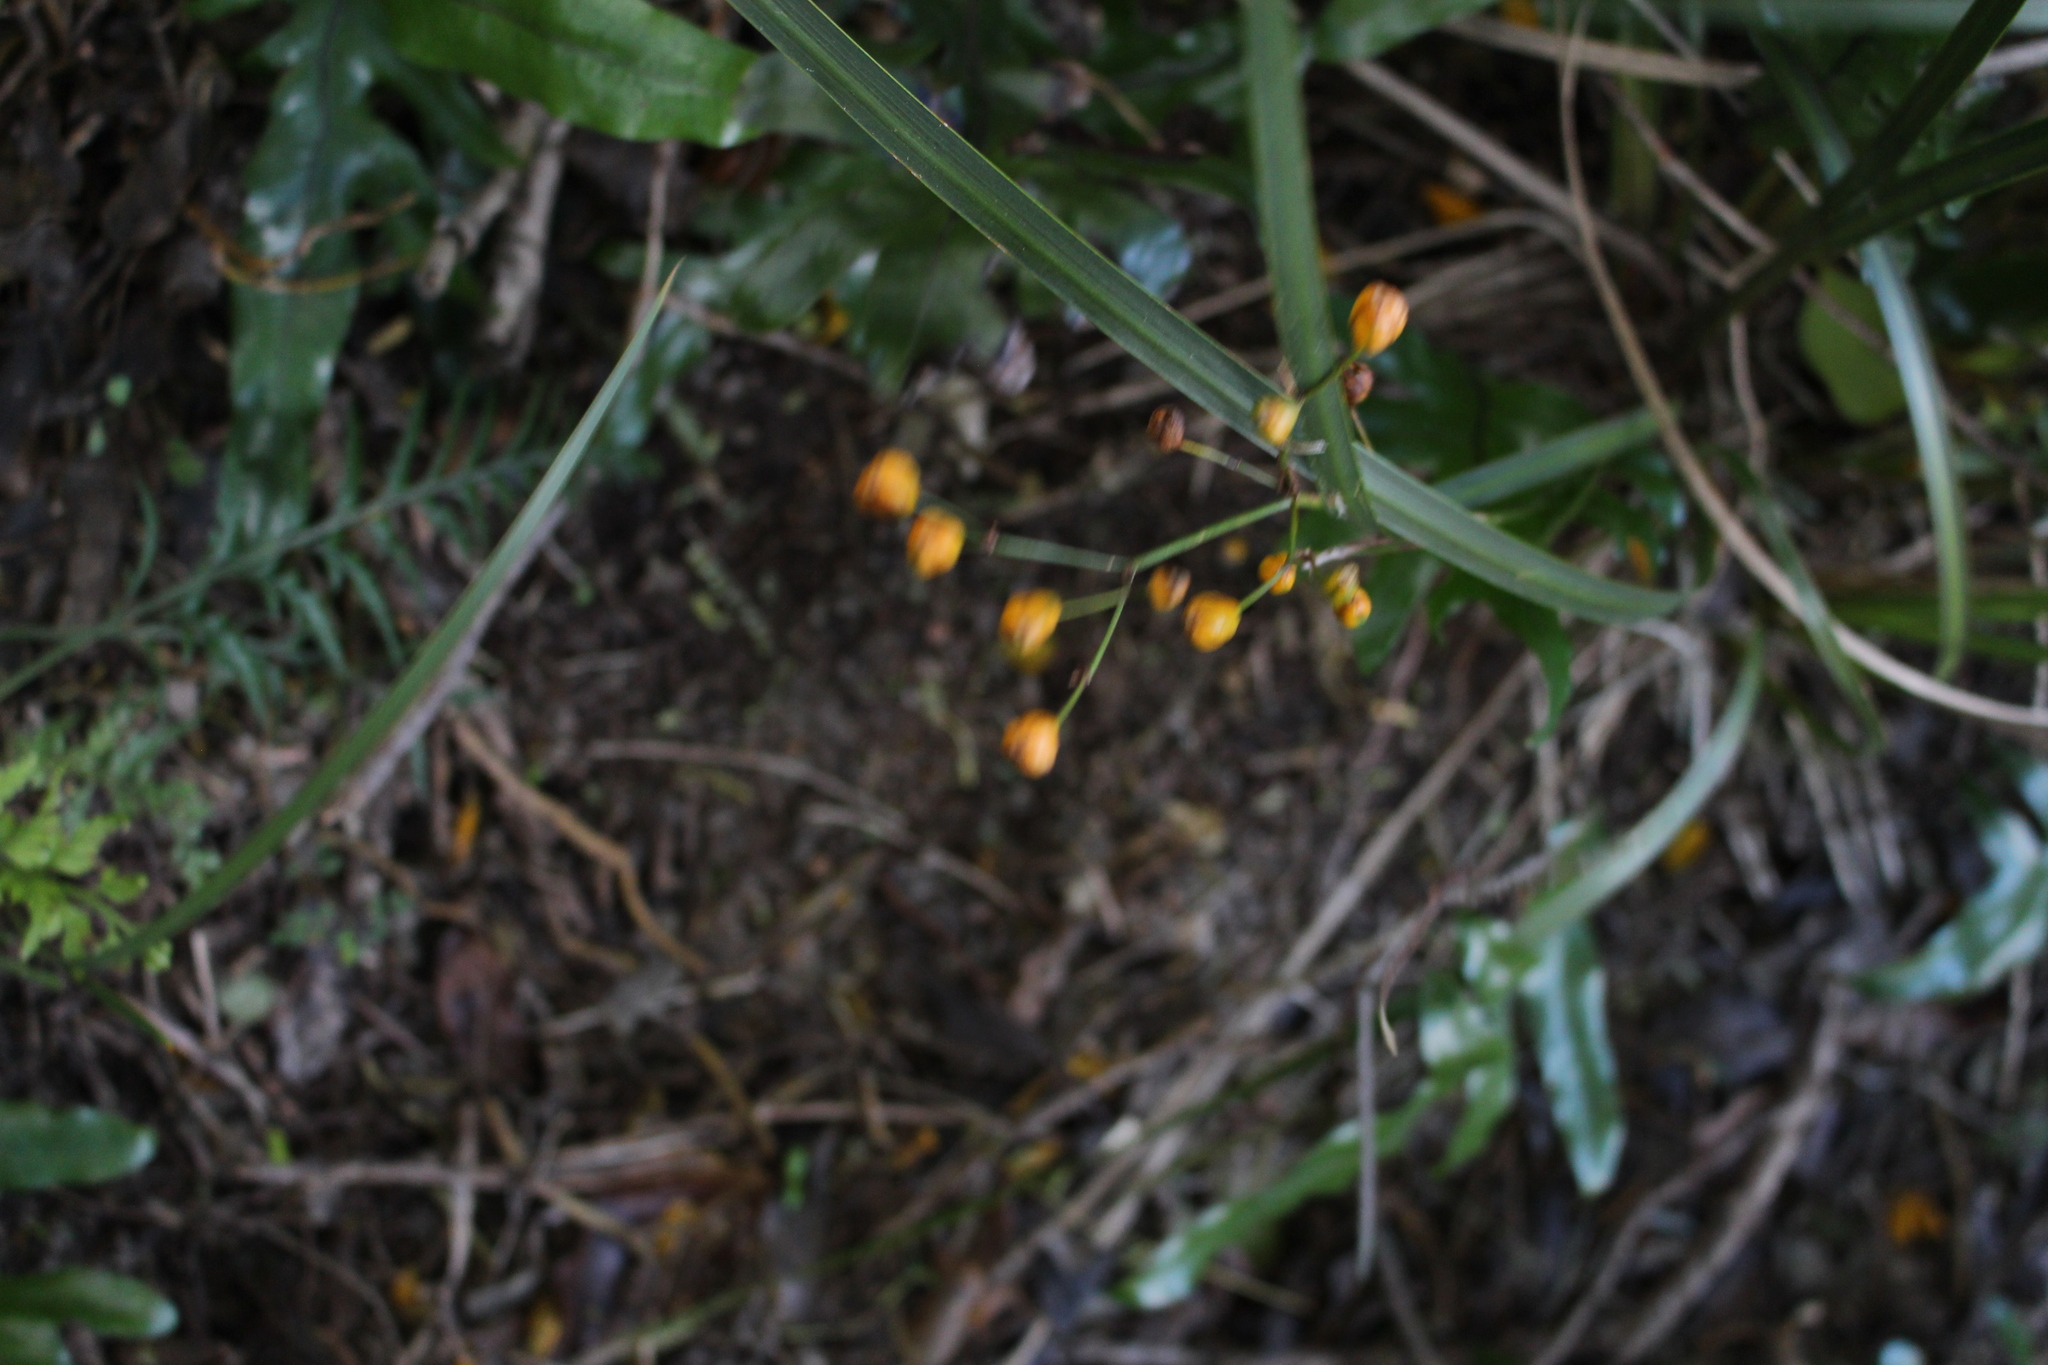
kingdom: Plantae
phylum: Tracheophyta
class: Liliopsida
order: Asparagales
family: Iridaceae
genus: Libertia
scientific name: Libertia ixioides
